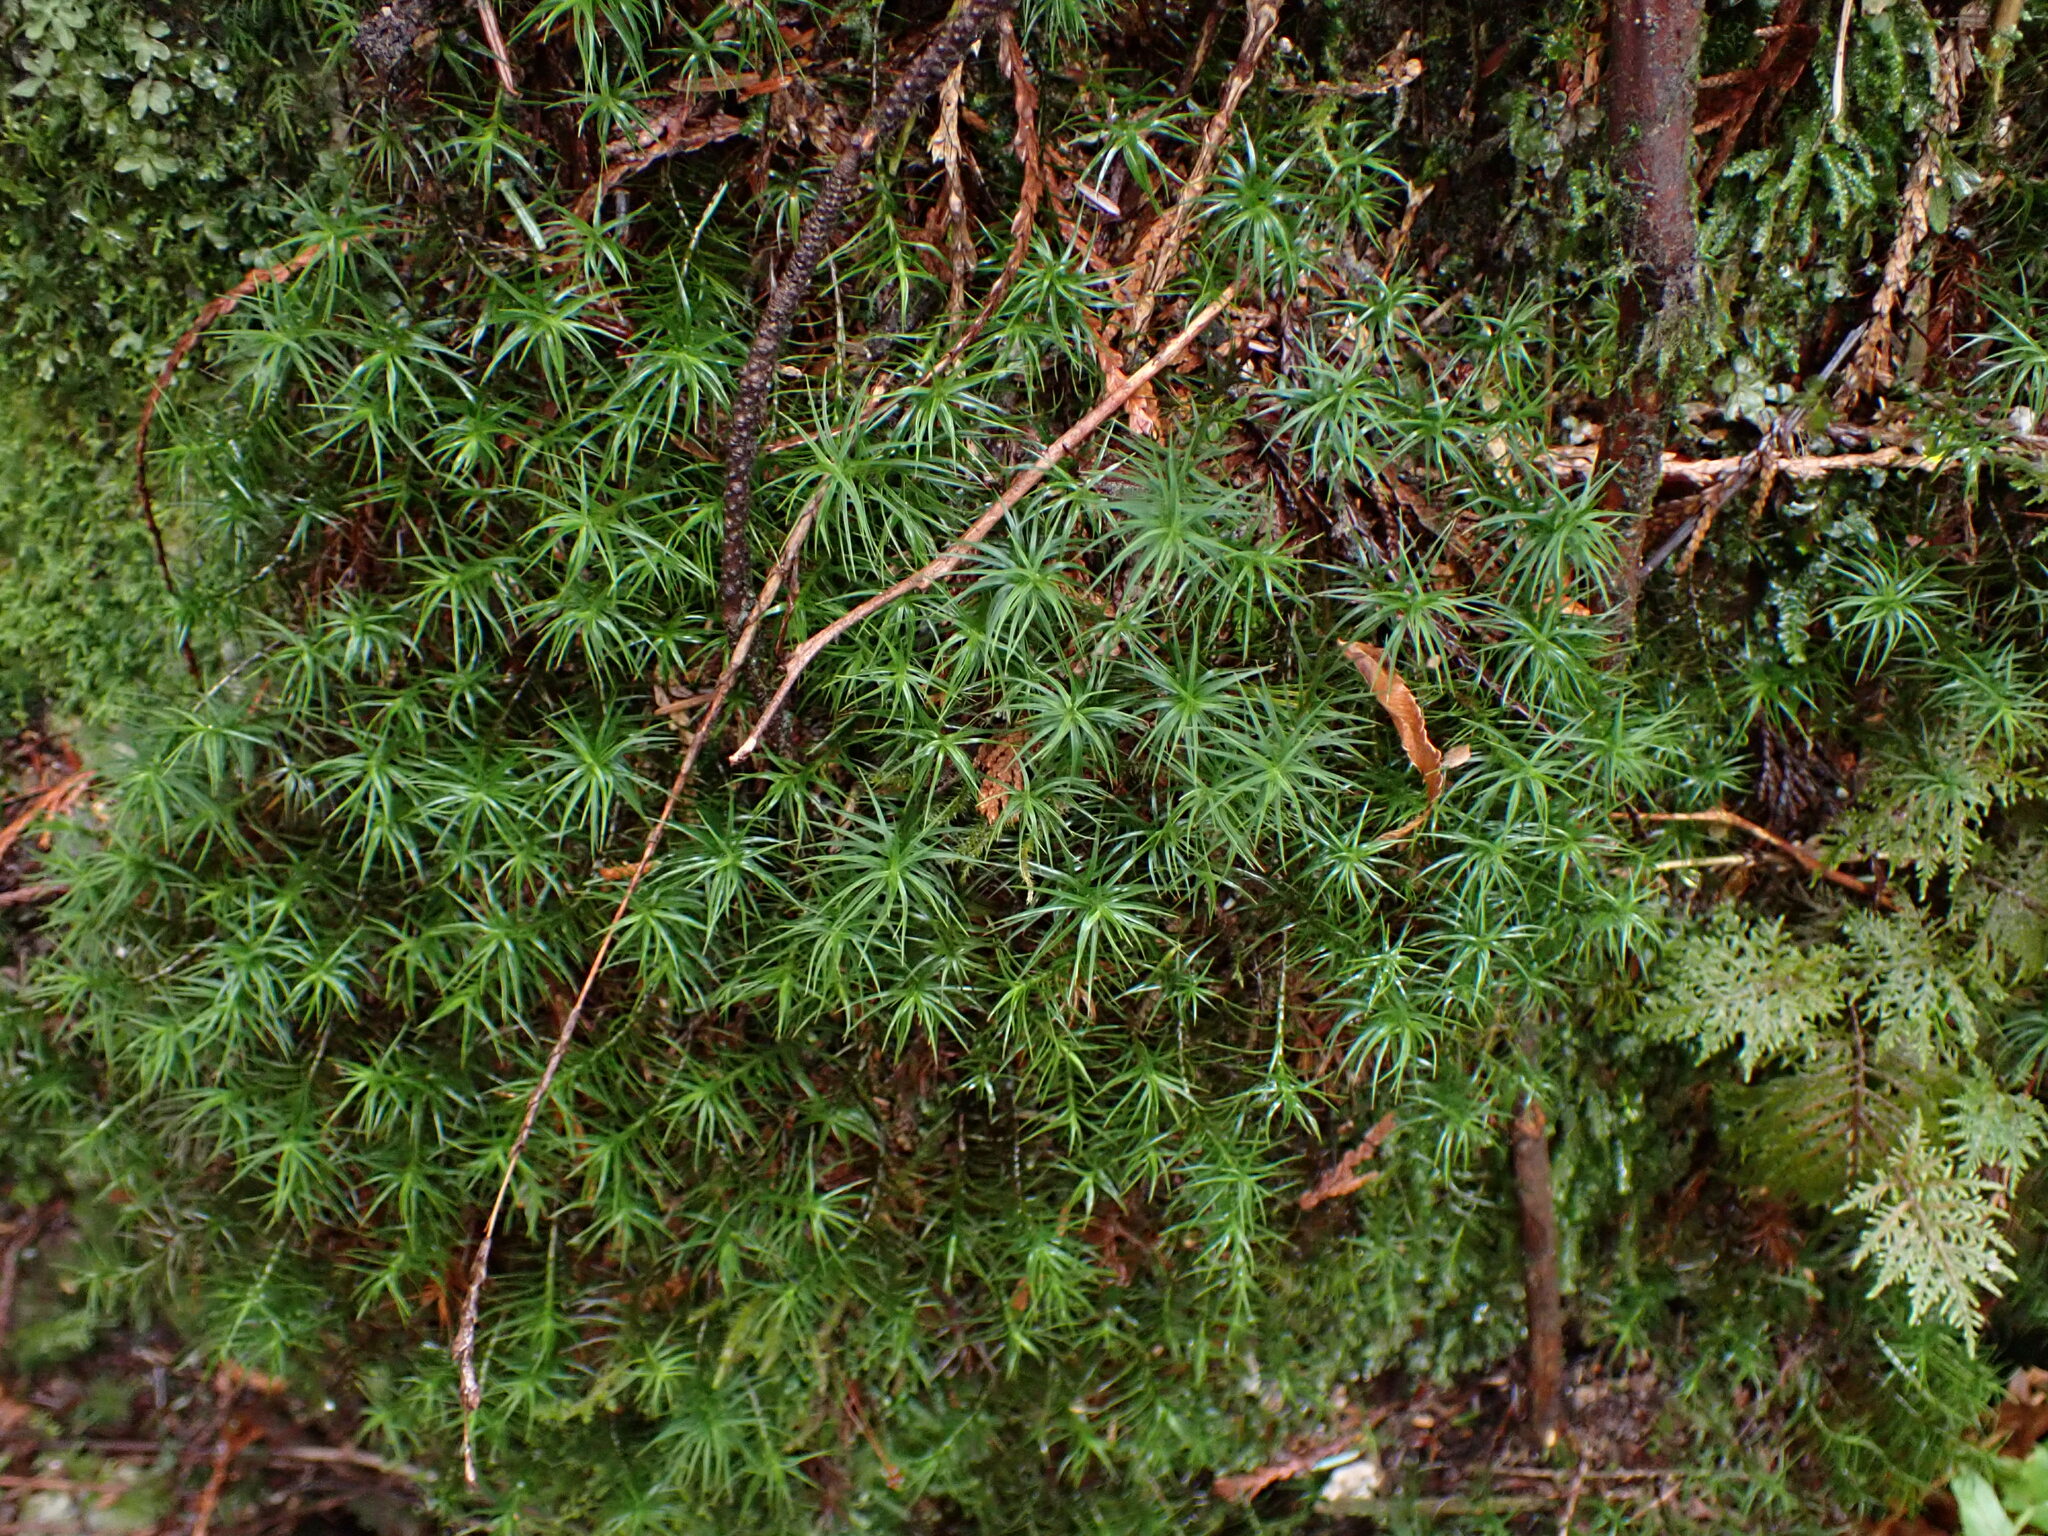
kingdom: Plantae
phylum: Bryophyta
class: Bryopsida
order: Bartramiales
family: Bartramiaceae
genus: Bartramia
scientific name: Bartramia ithyphylla
